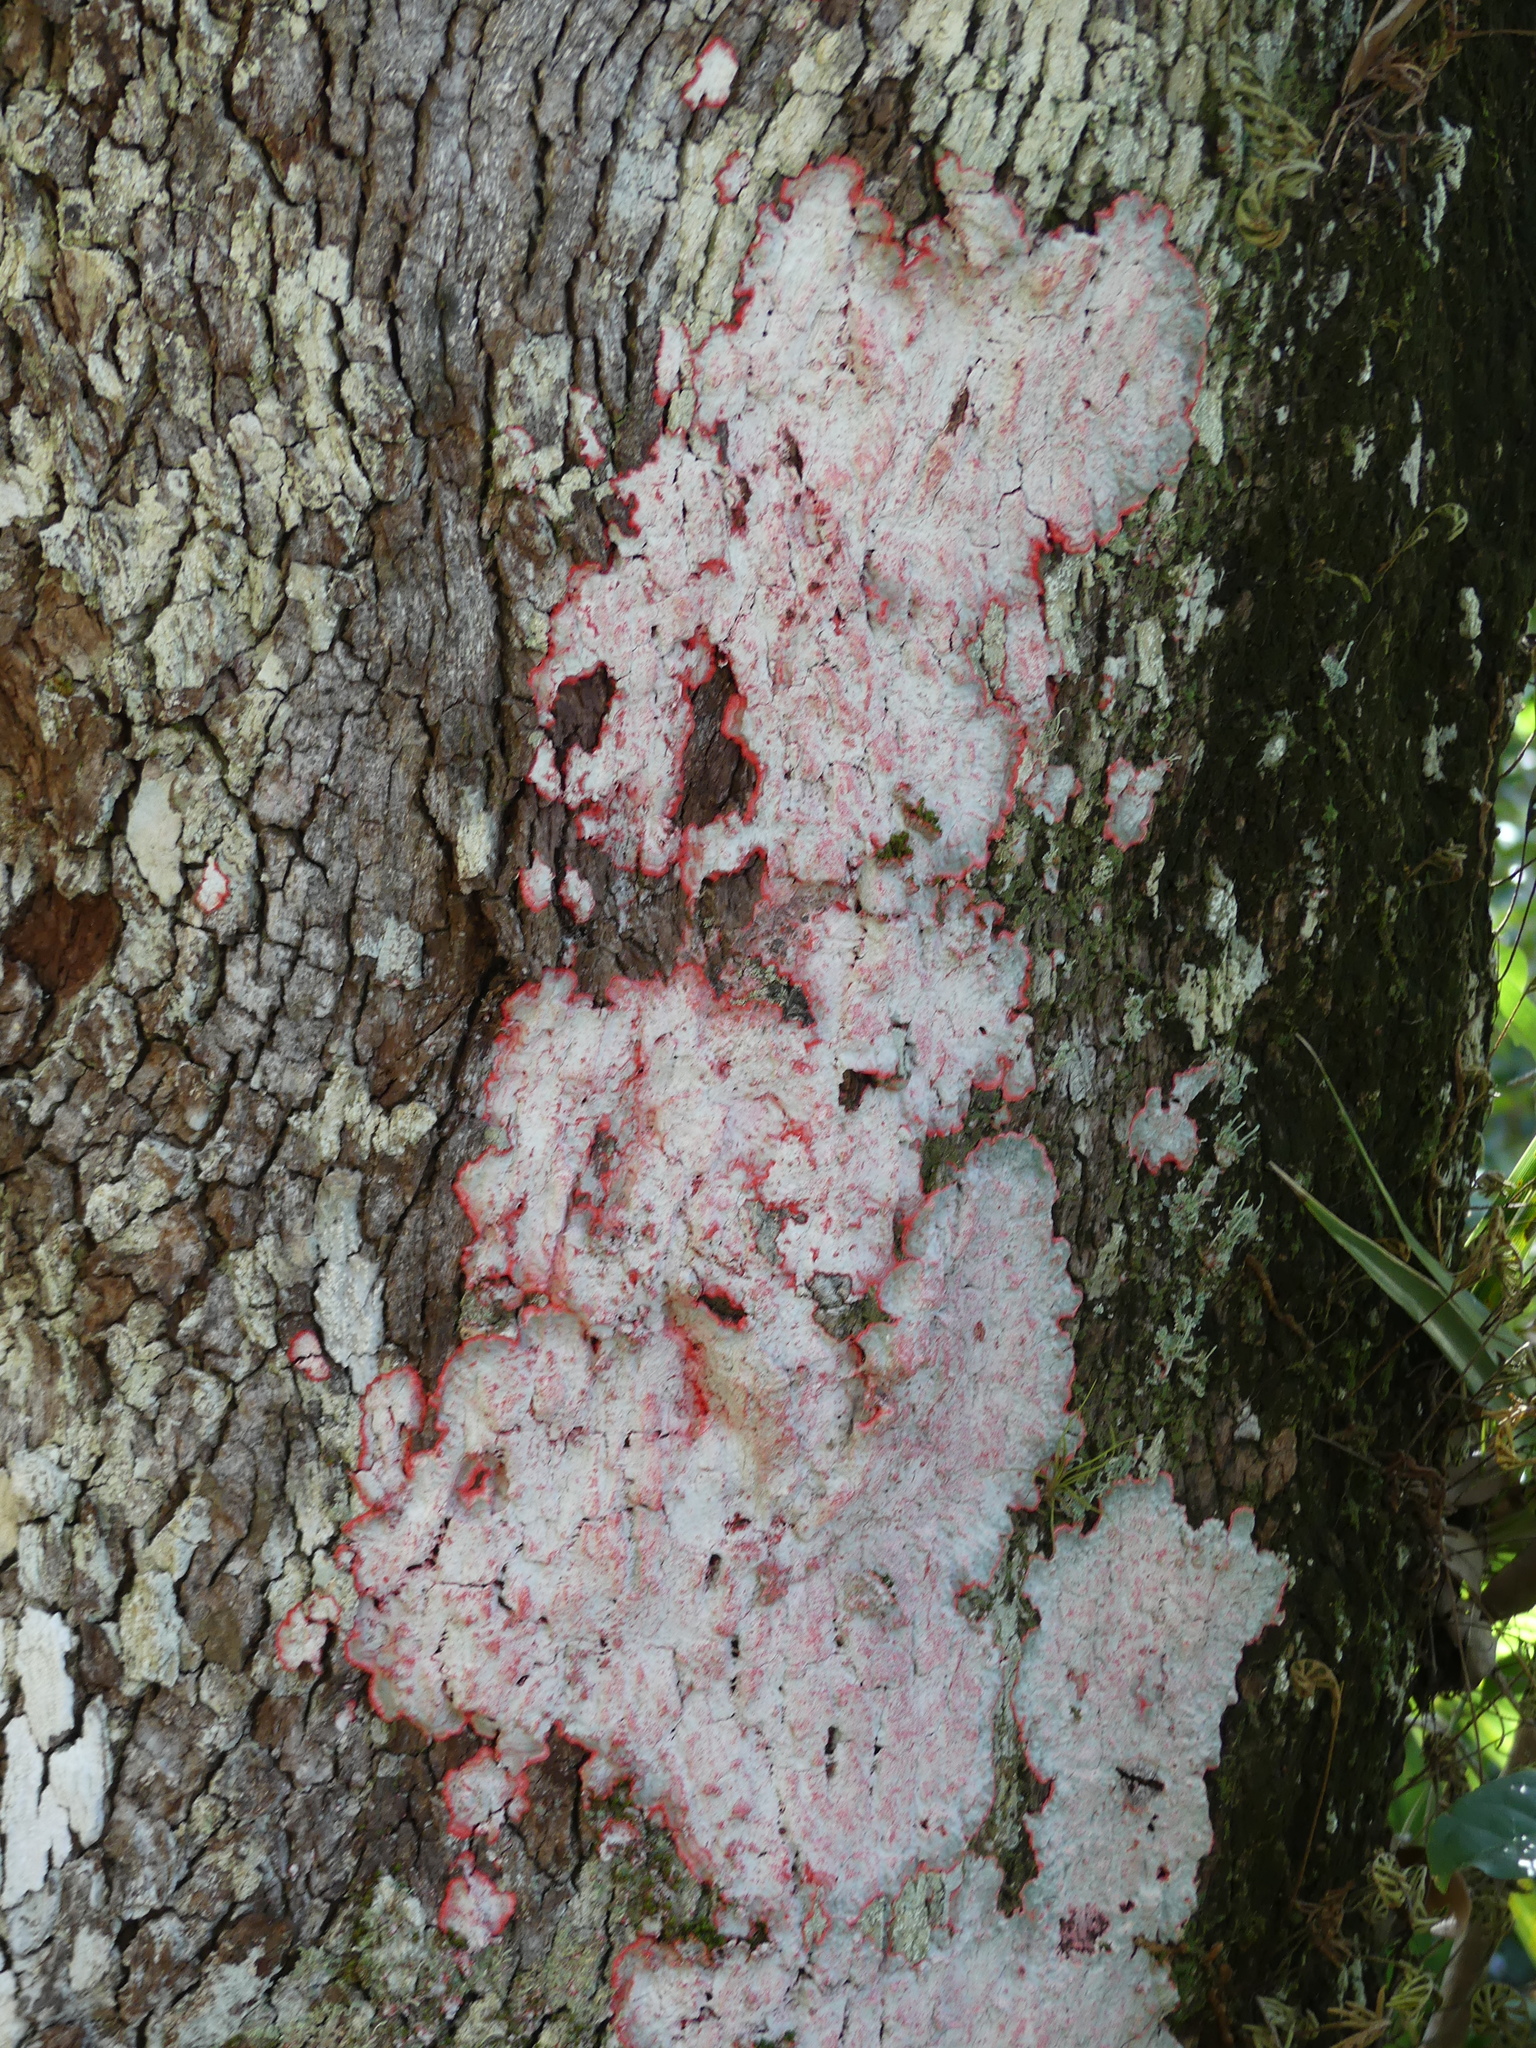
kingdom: Fungi
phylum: Ascomycota
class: Arthoniomycetes
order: Arthoniales
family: Arthoniaceae
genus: Herpothallon
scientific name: Herpothallon rubrocinctum
